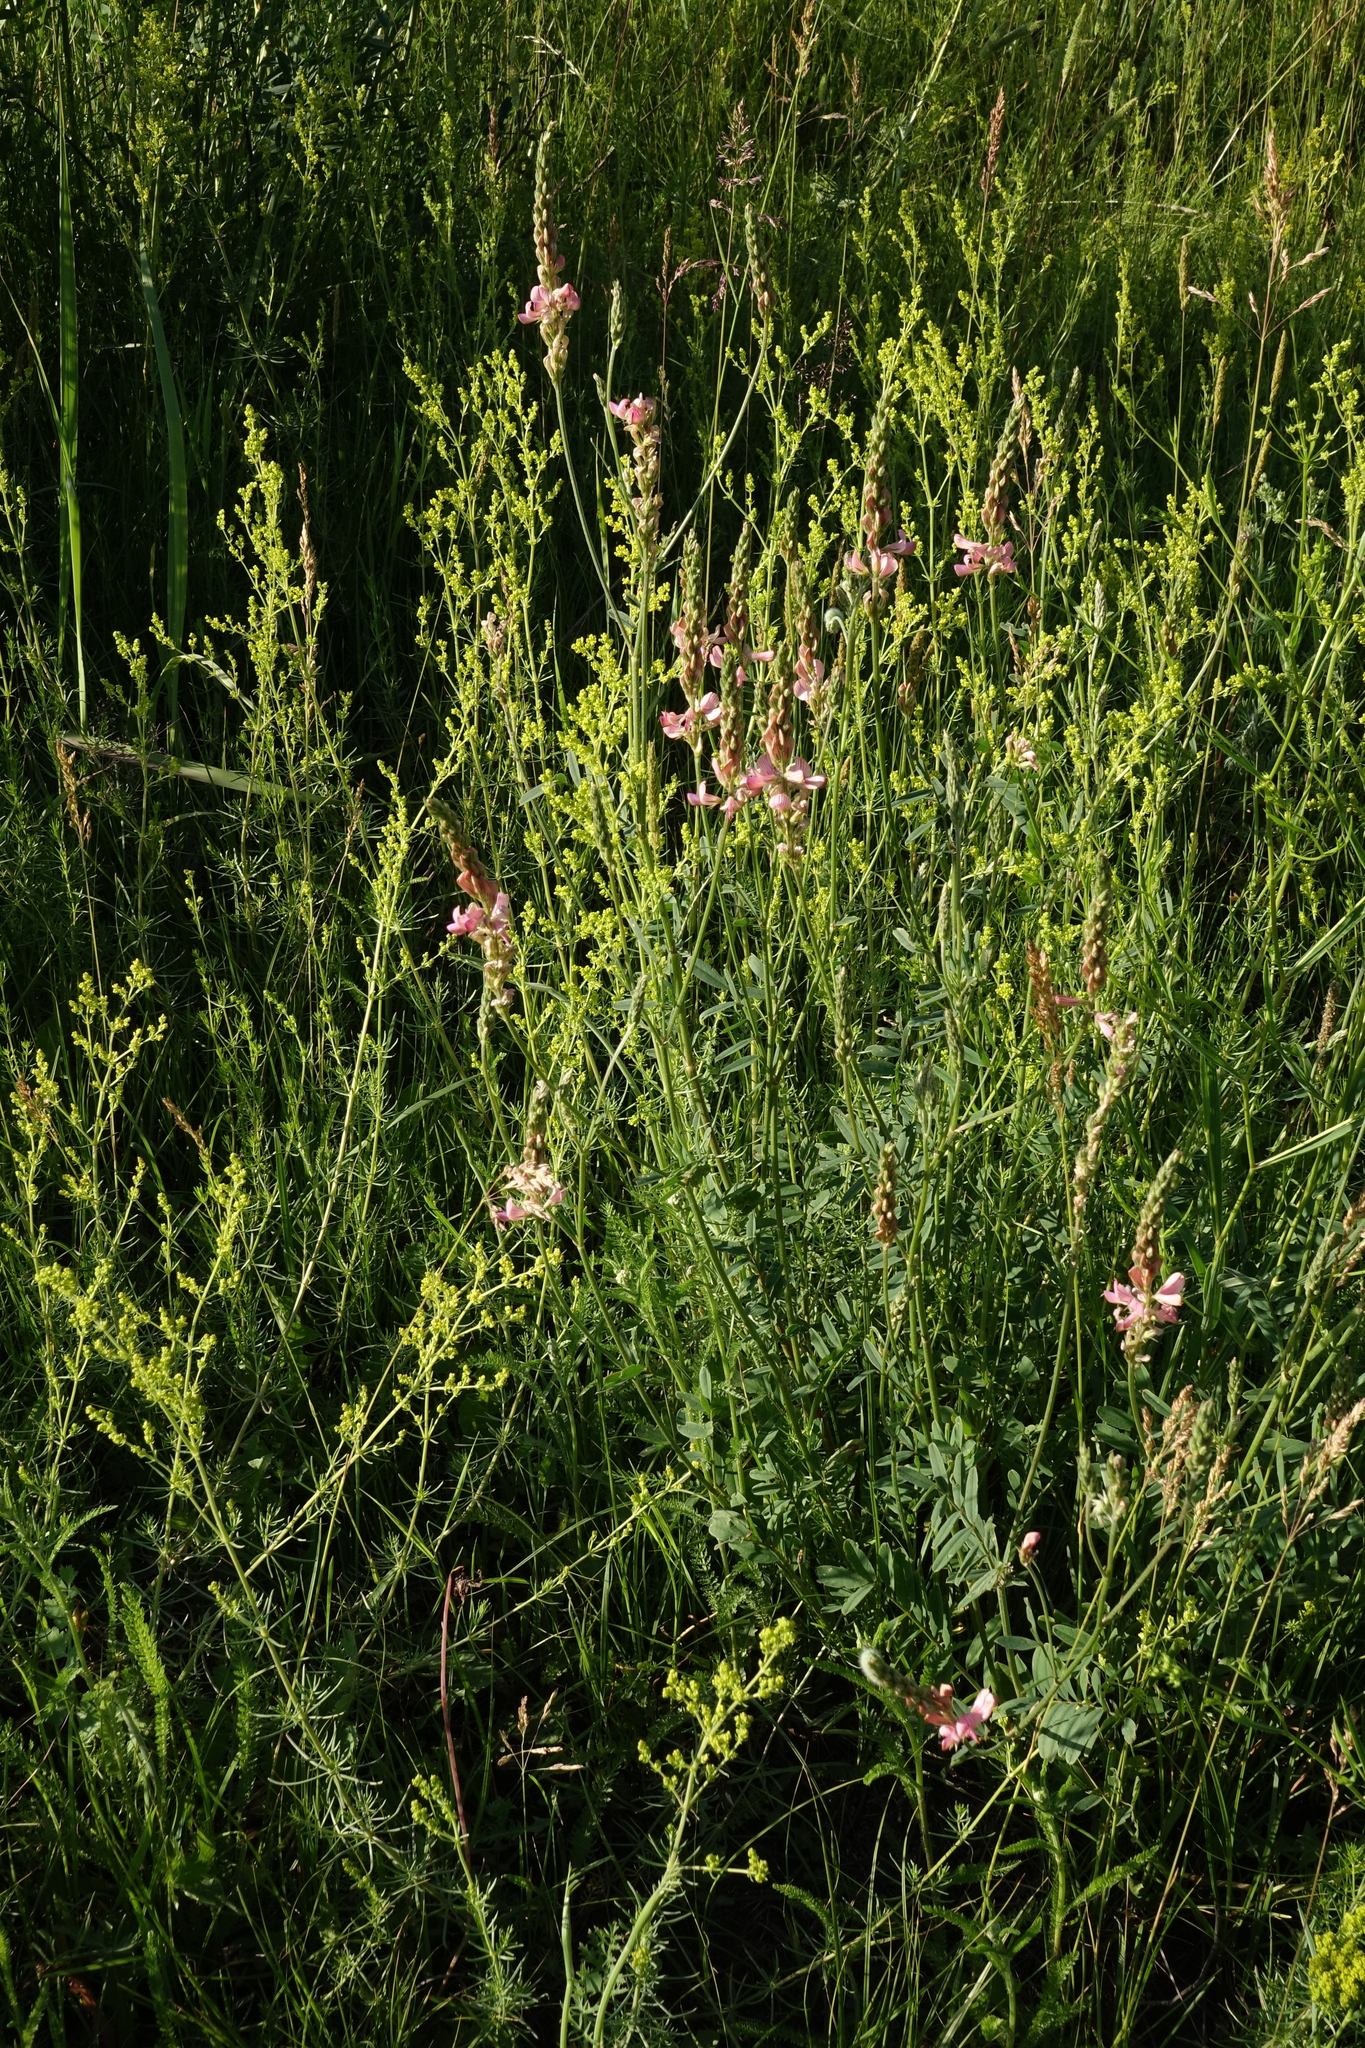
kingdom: Plantae
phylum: Tracheophyta
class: Magnoliopsida
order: Fabales
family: Fabaceae
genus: Onobrychis
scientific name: Onobrychis arenaria
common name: Sand esparcet
